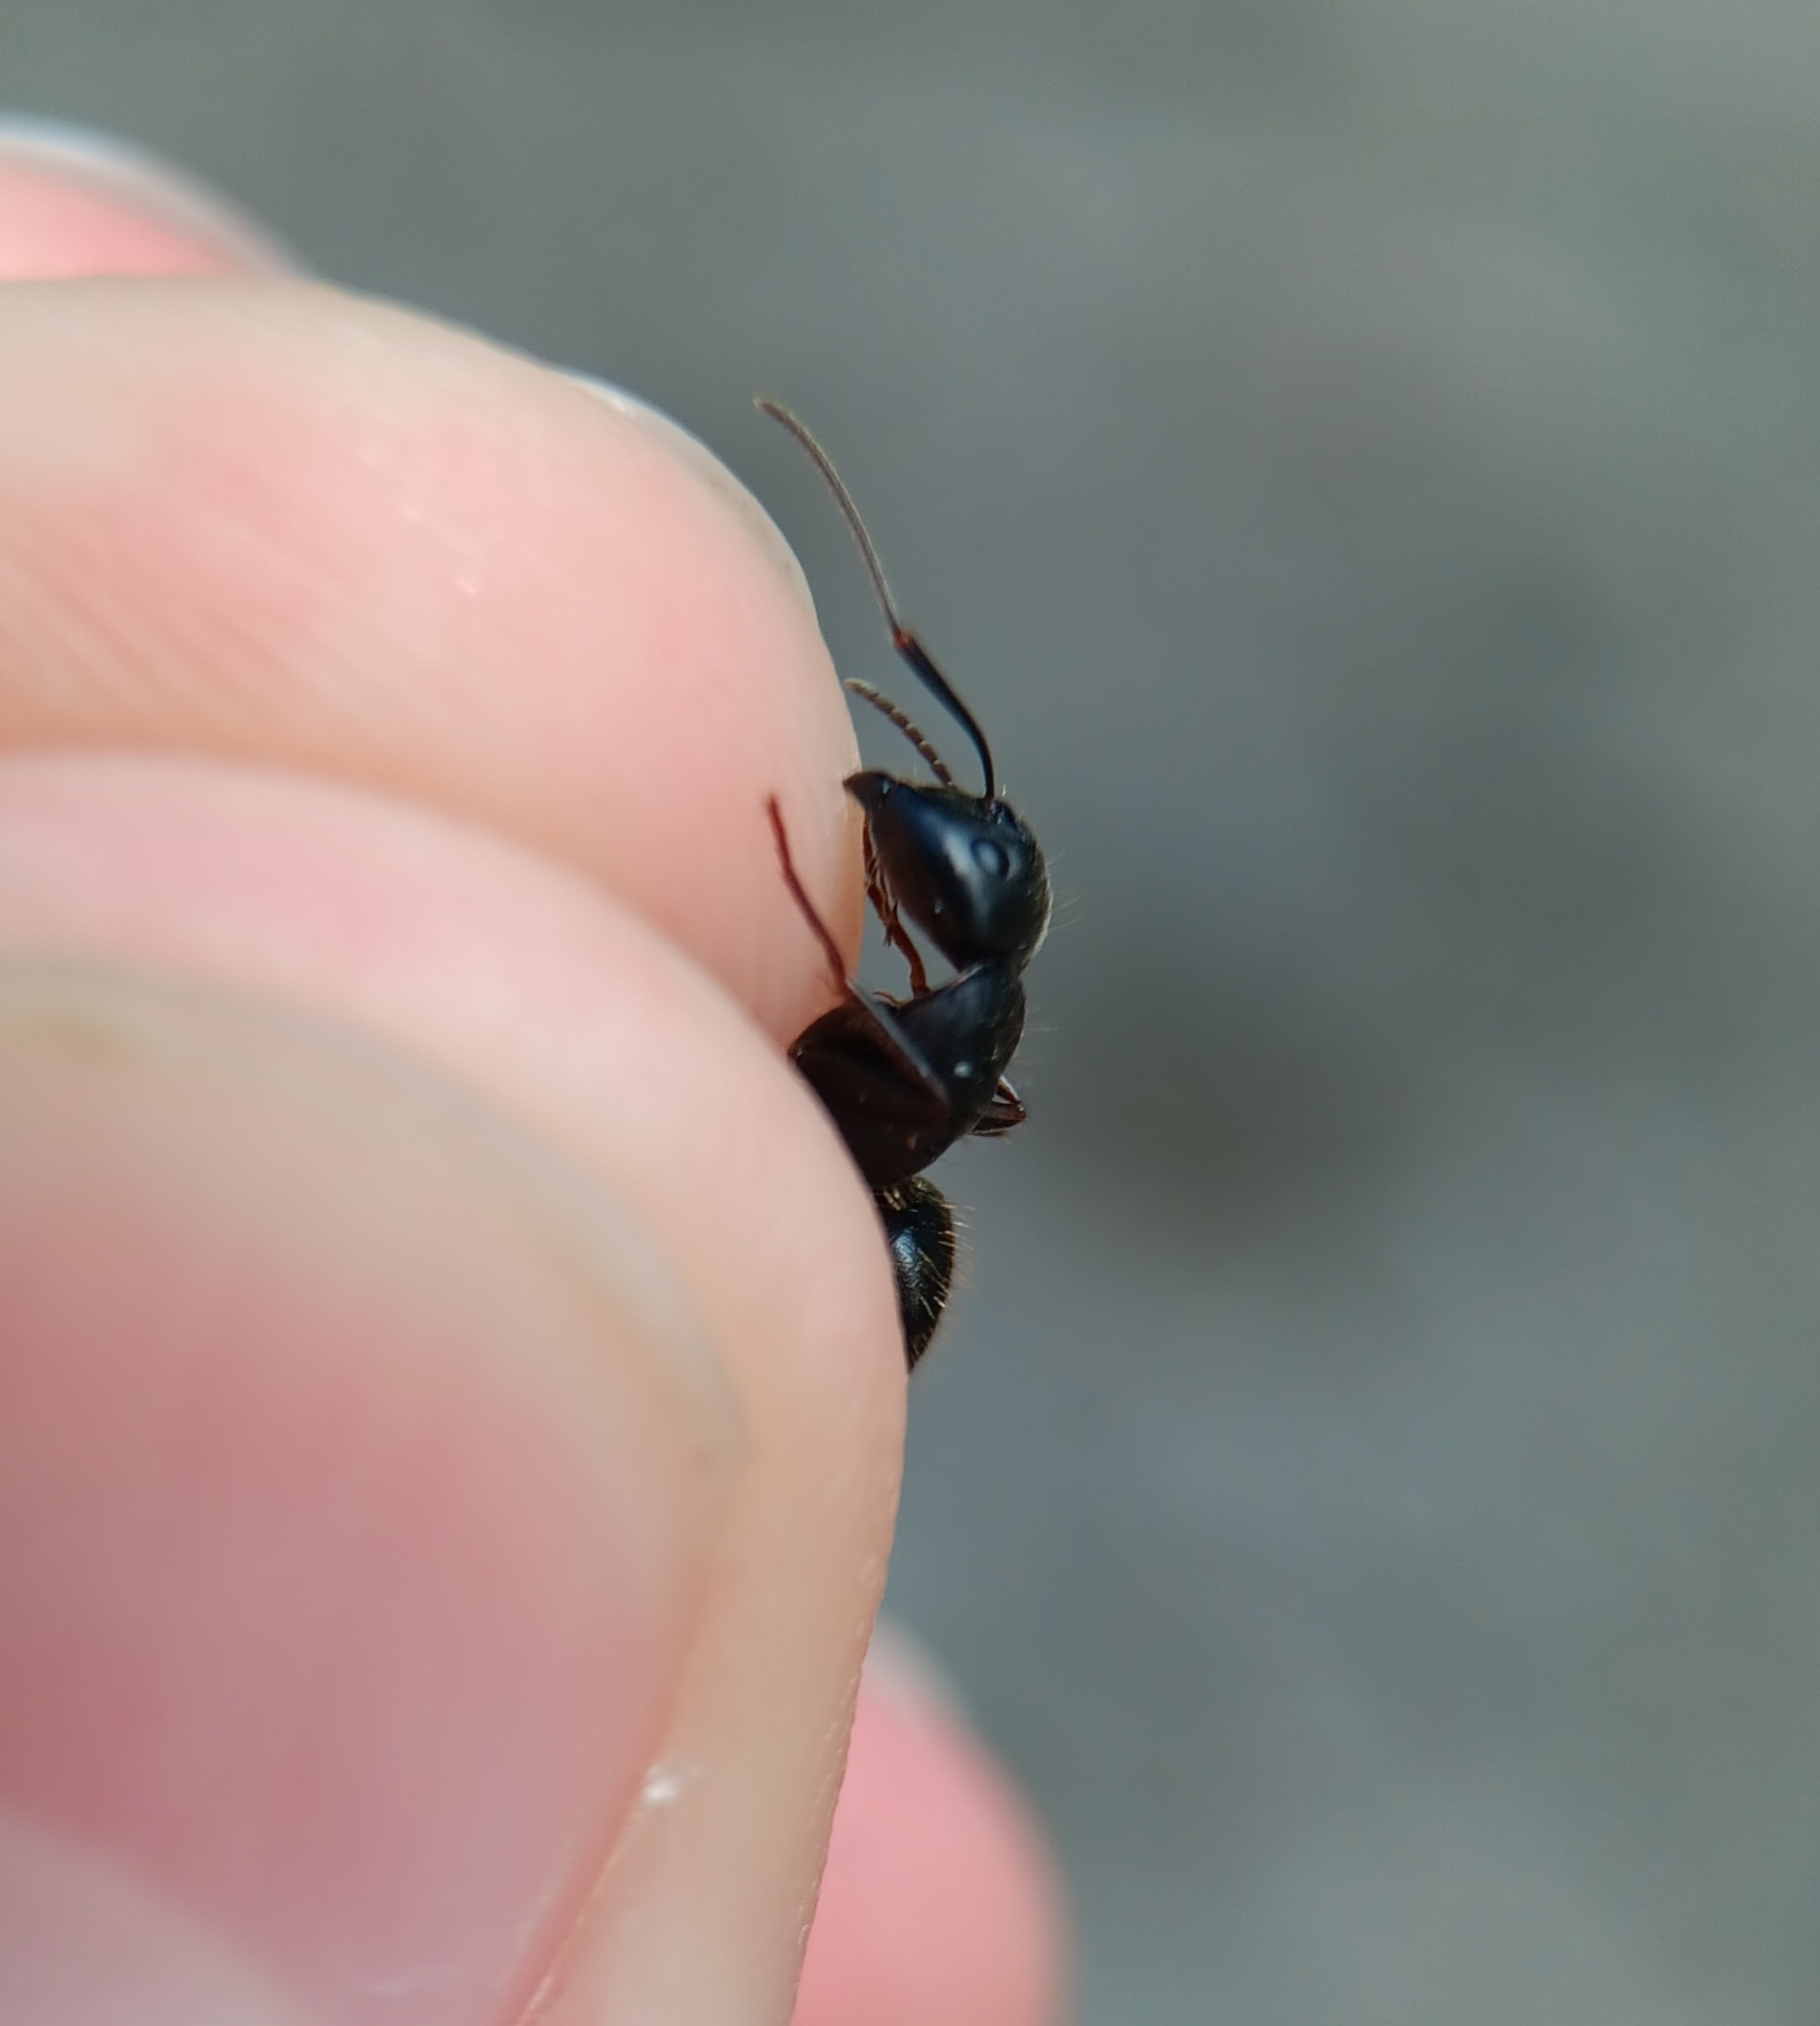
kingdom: Animalia
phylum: Arthropoda
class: Insecta
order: Hymenoptera
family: Formicidae
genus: Camponotus
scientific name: Camponotus pennsylvanicus
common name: Black carpenter ant
